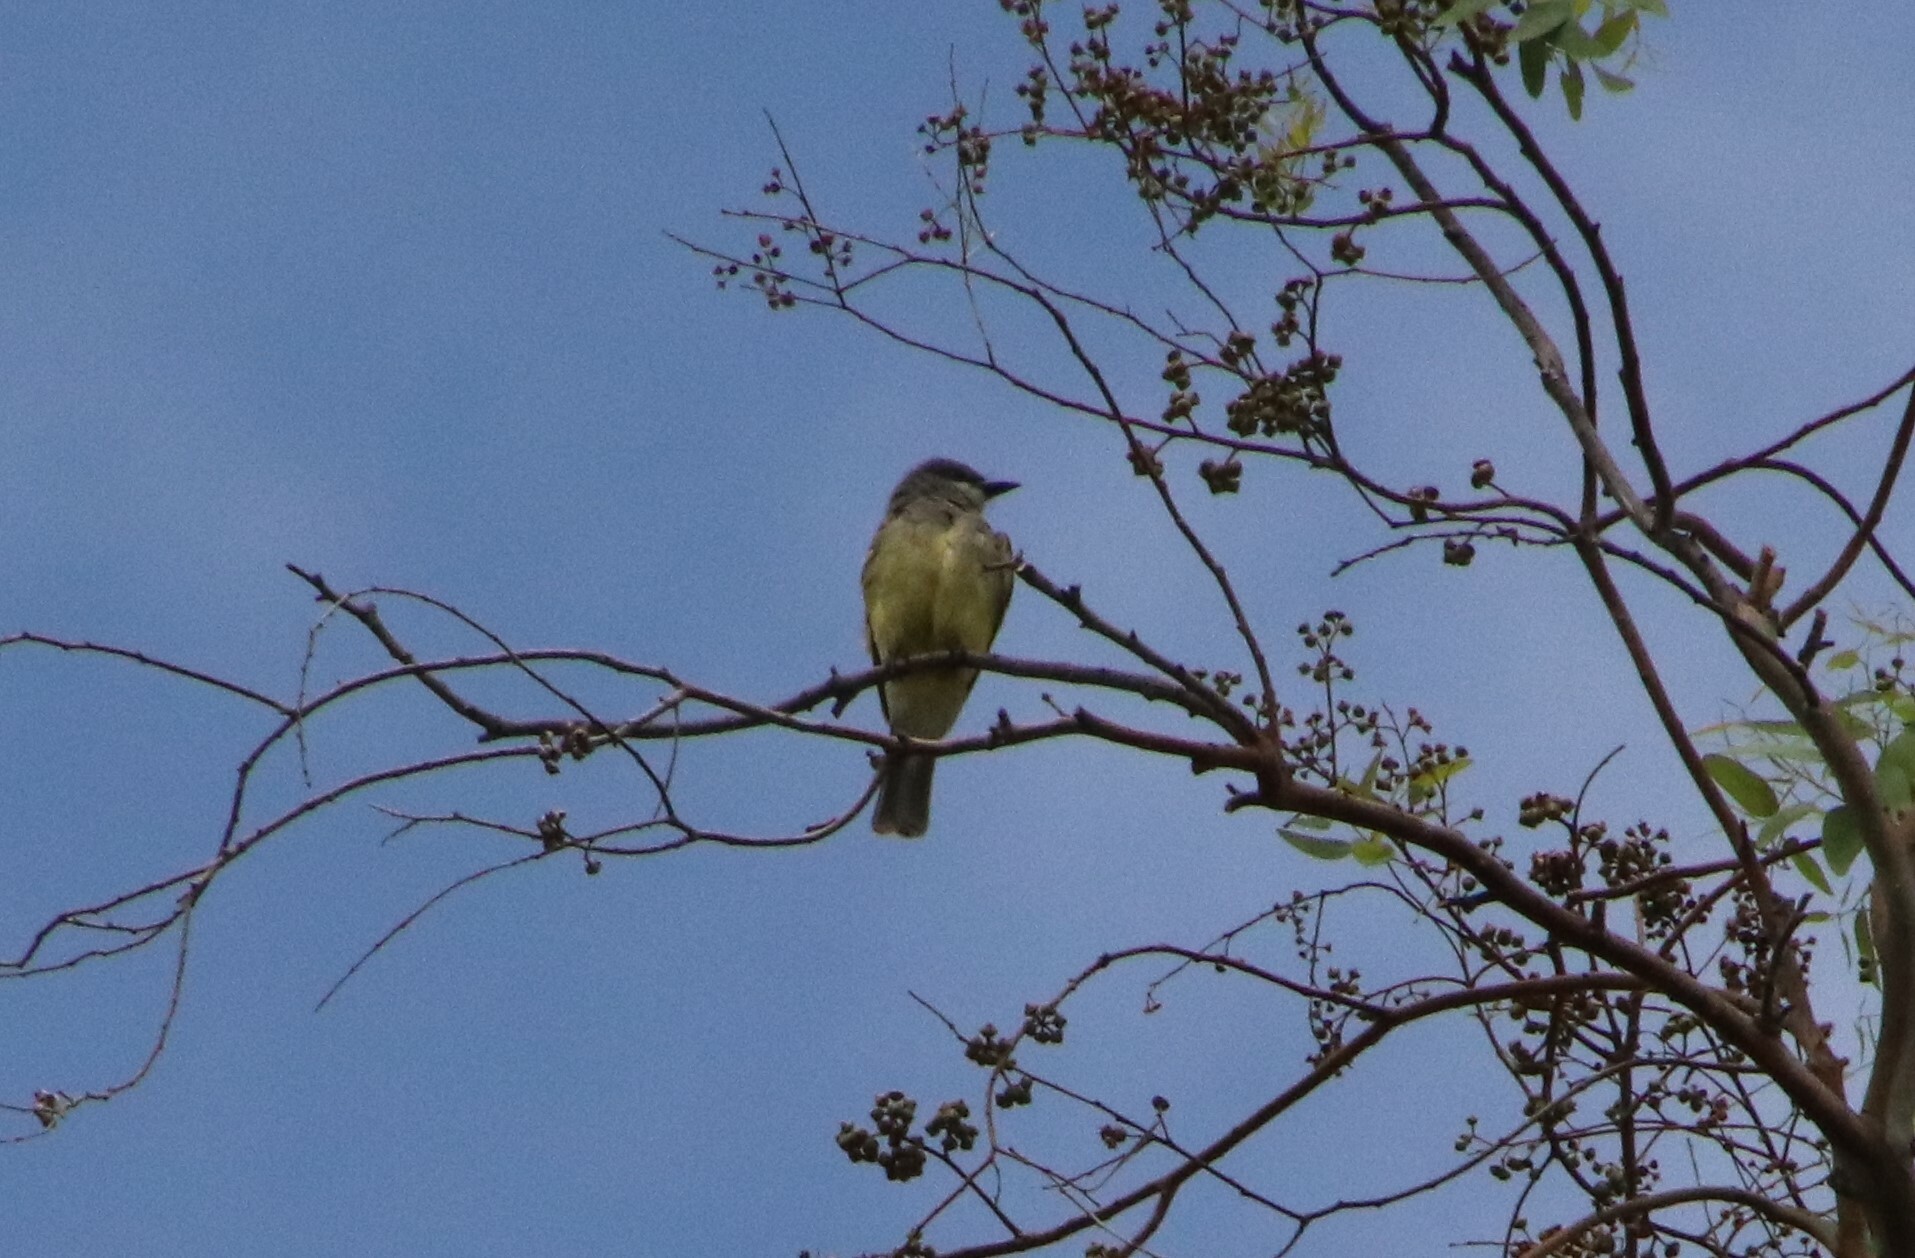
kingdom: Animalia
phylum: Chordata
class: Aves
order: Passeriformes
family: Tyrannidae
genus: Tyrannus
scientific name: Tyrannus vociferans
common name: Cassin's kingbird
